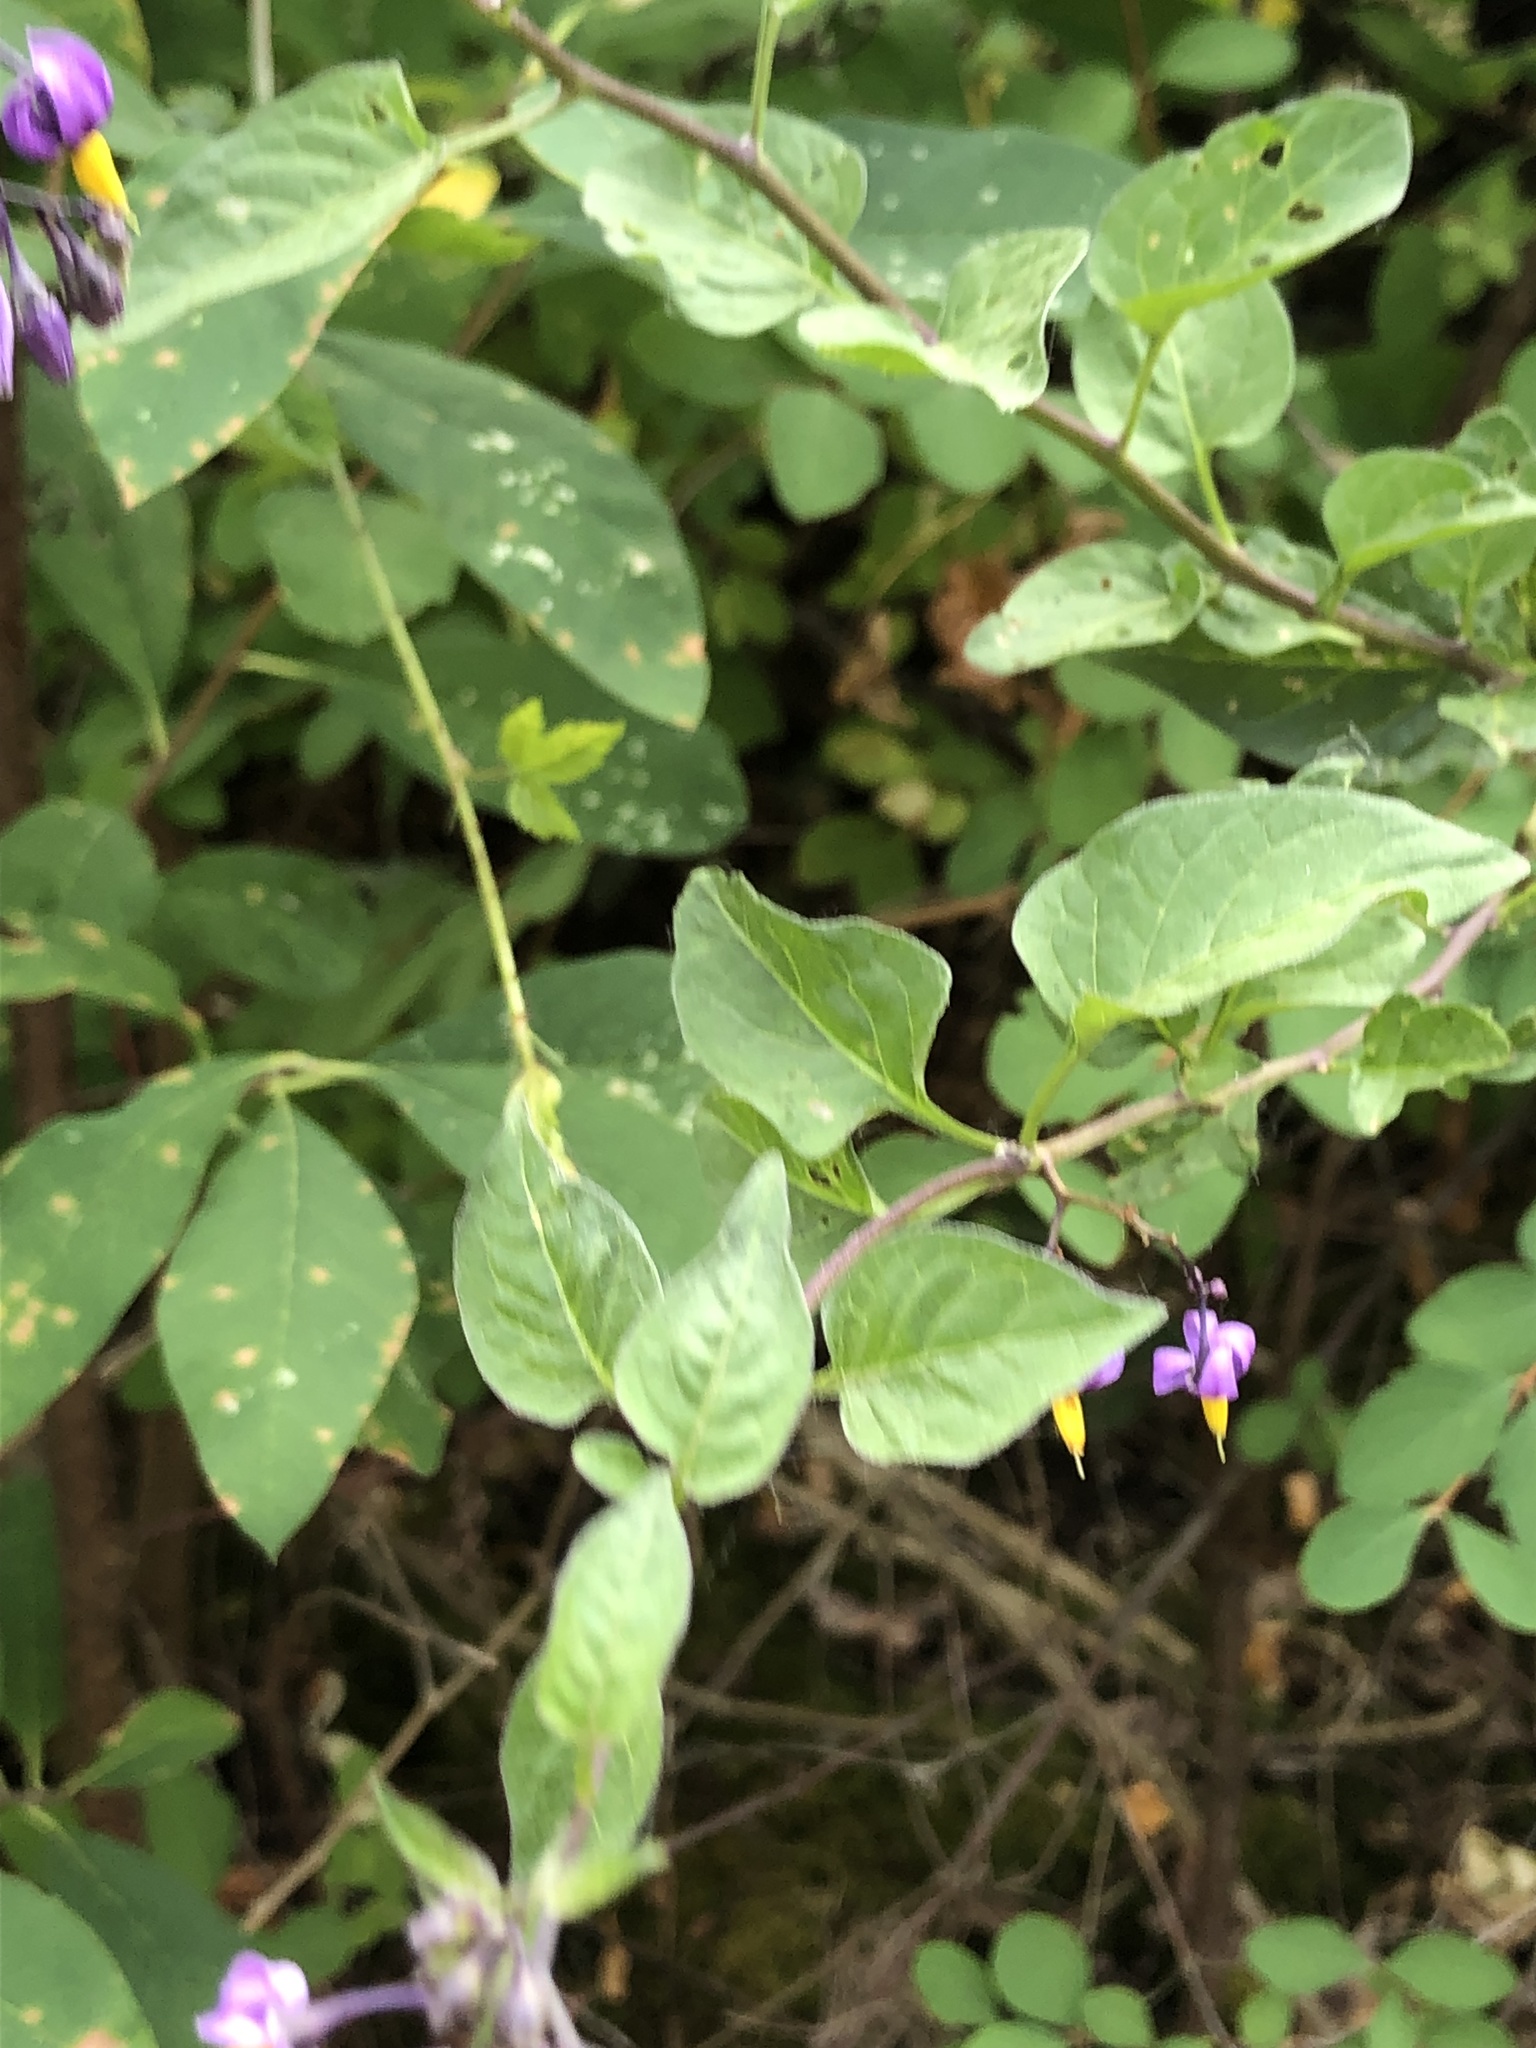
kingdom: Plantae
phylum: Tracheophyta
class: Magnoliopsida
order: Solanales
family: Solanaceae
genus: Solanum
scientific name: Solanum dulcamara
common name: Climbing nightshade
